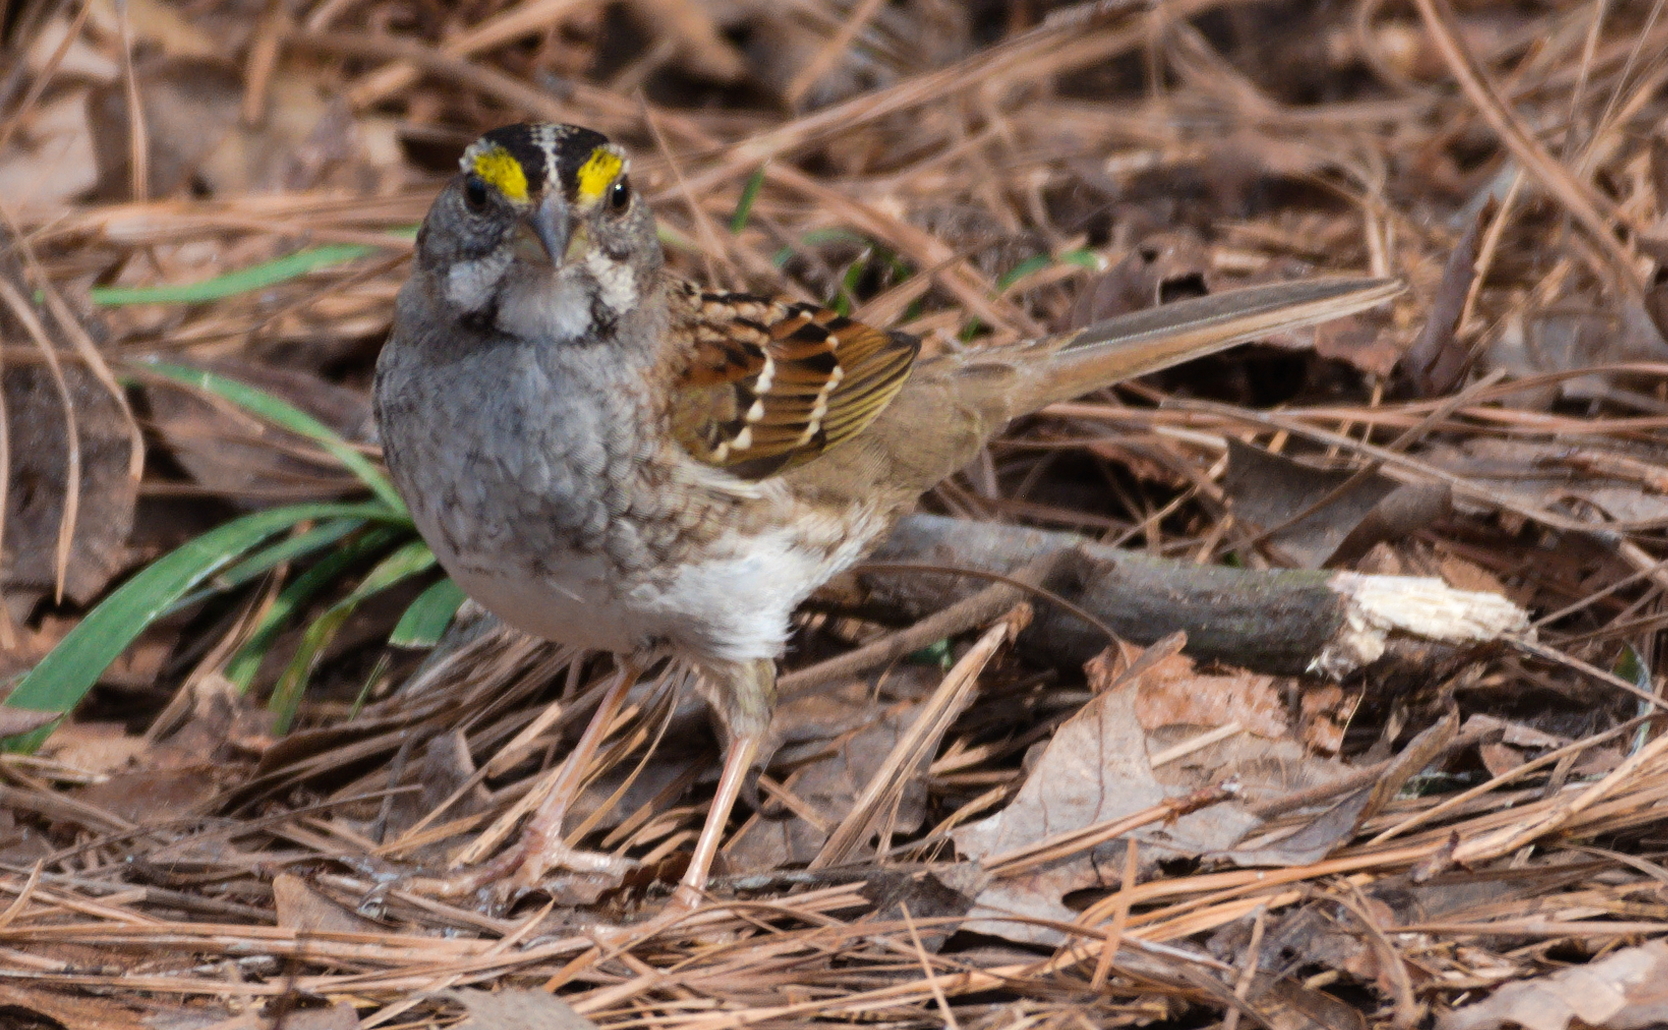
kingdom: Animalia
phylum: Chordata
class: Aves
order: Passeriformes
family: Passerellidae
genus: Zonotrichia
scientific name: Zonotrichia albicollis
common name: White-throated sparrow
